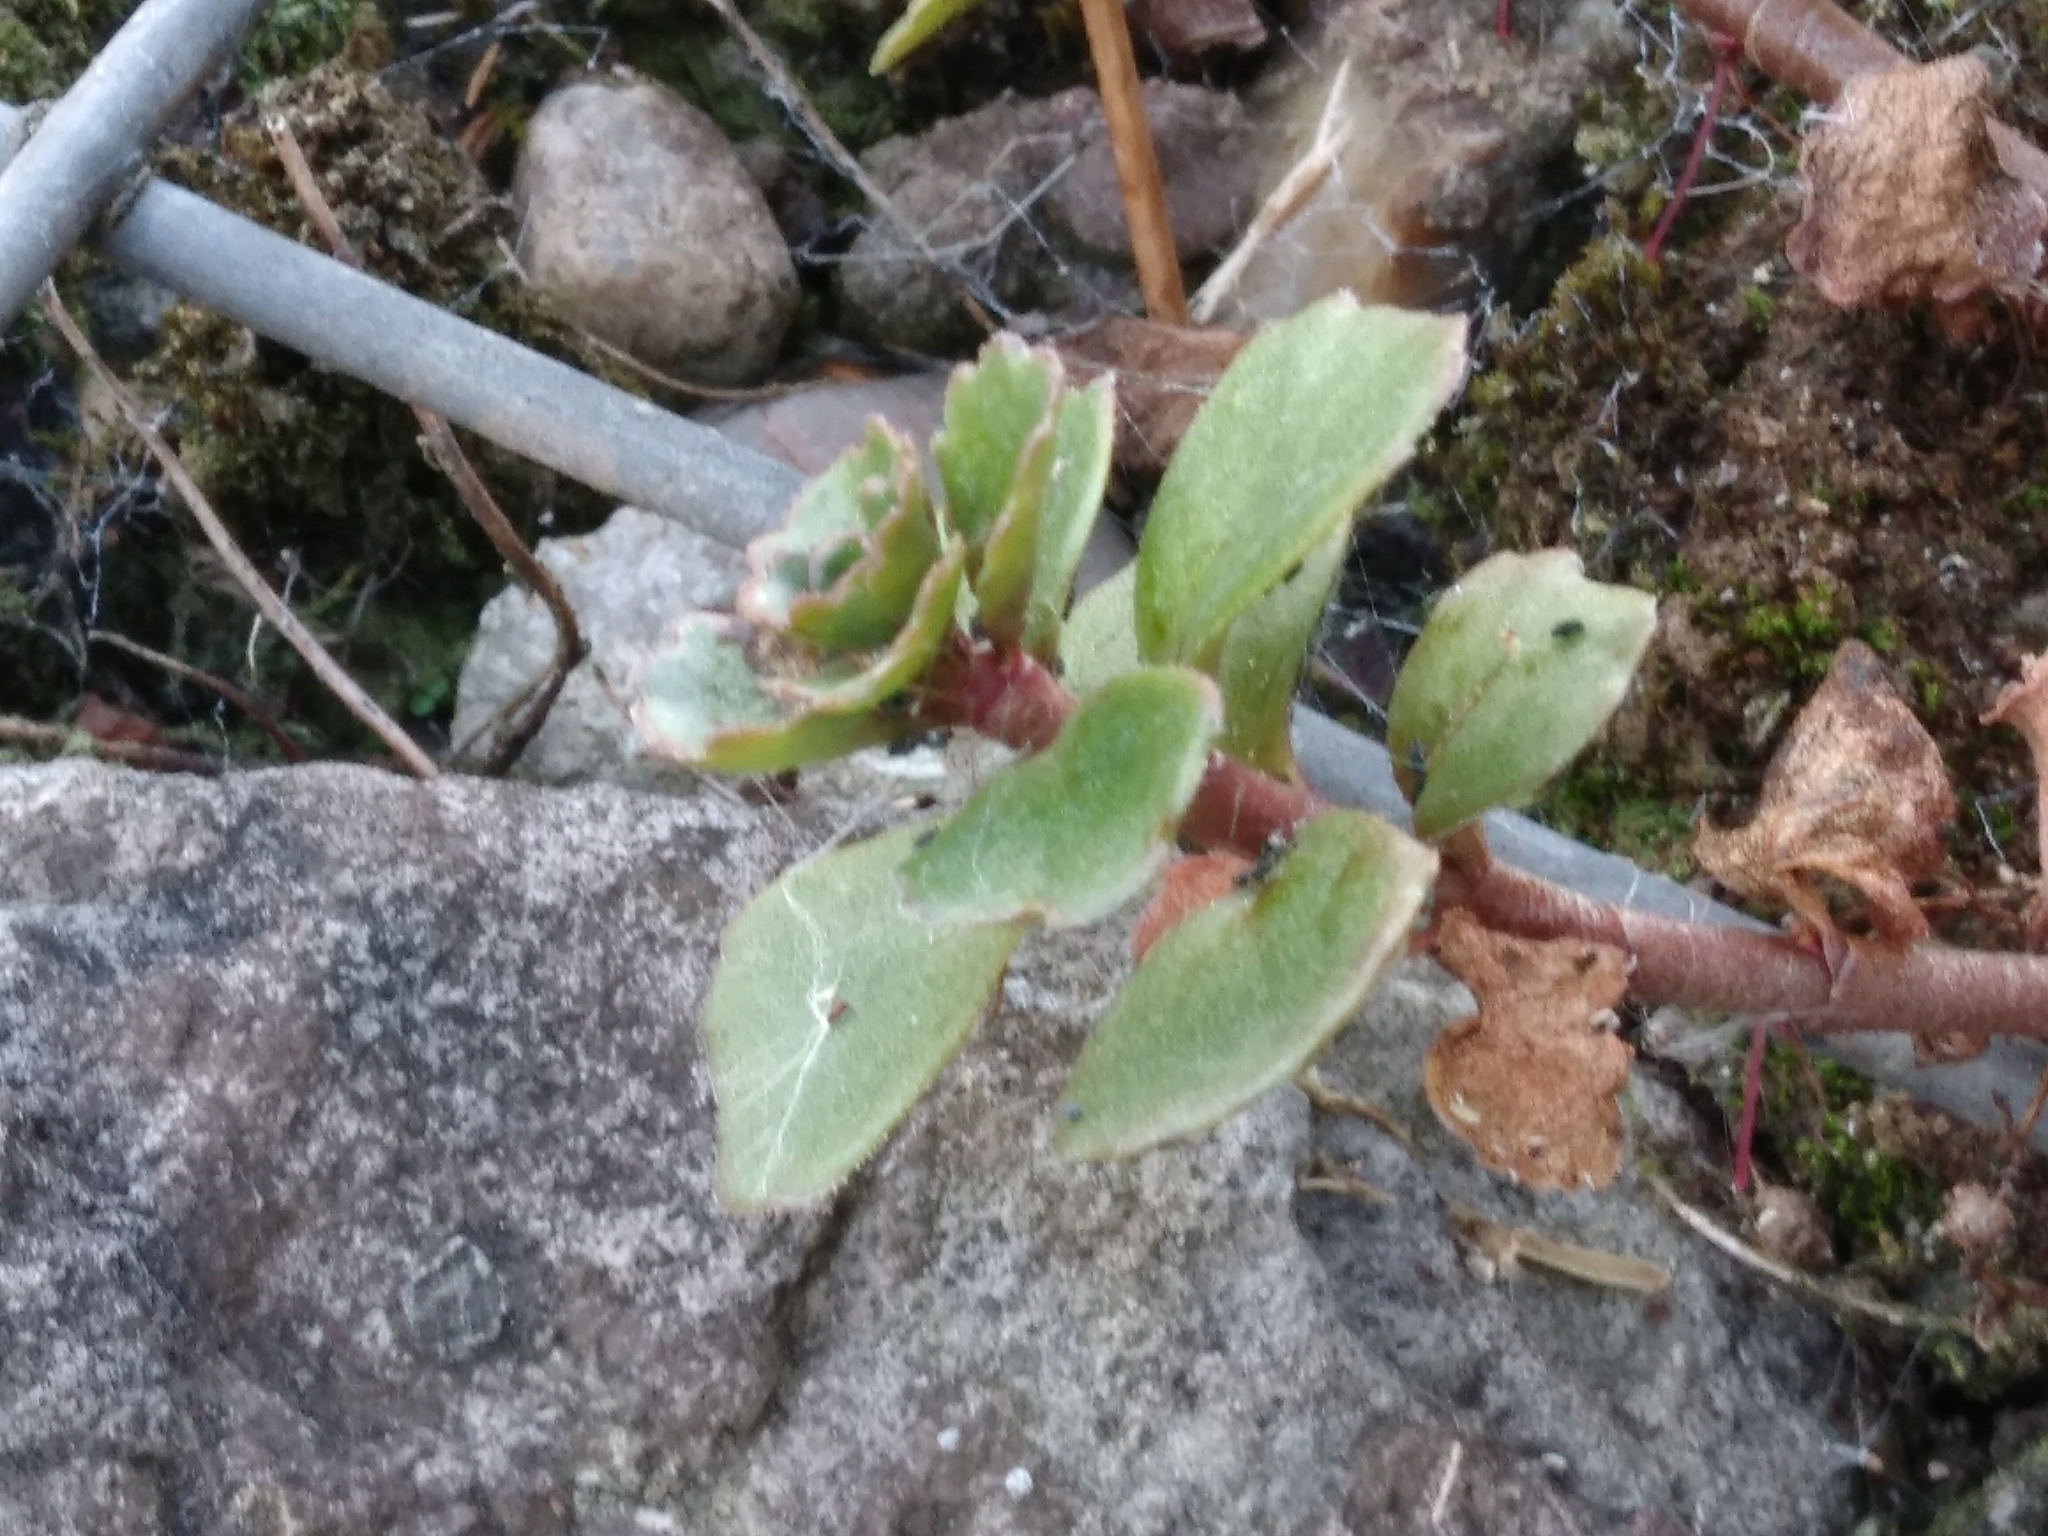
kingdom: Plantae
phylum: Tracheophyta
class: Magnoliopsida
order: Saxifragales
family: Crassulaceae
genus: Phedimus
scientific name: Phedimus spurius
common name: Caucasian stonecrop
